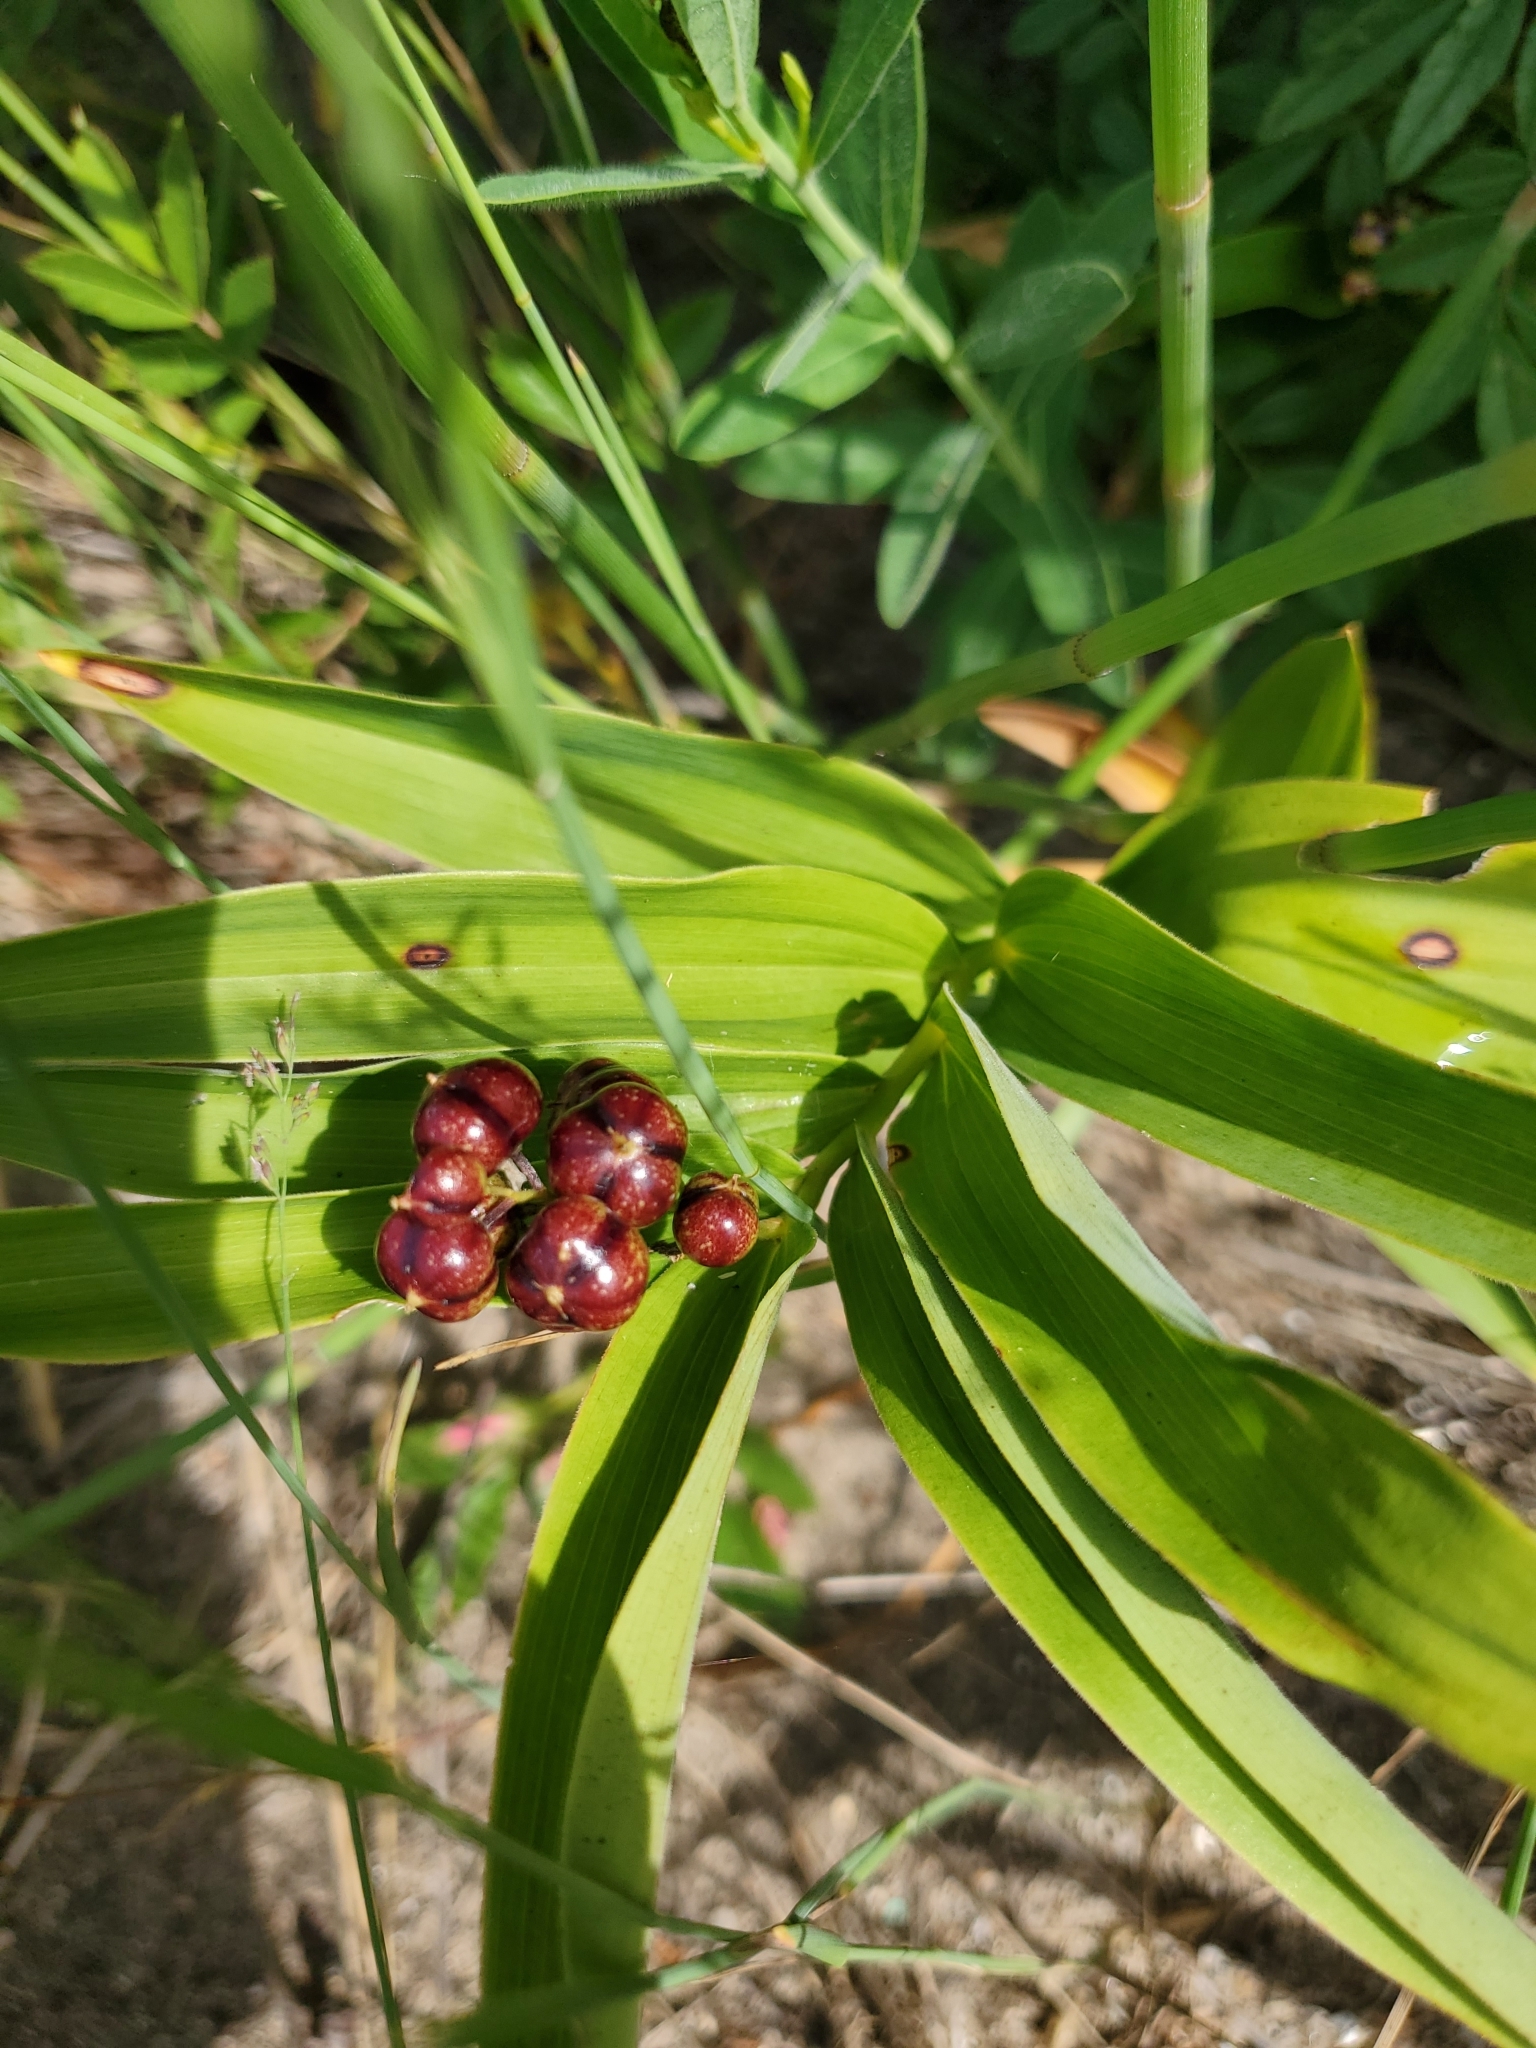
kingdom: Plantae
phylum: Tracheophyta
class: Liliopsida
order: Asparagales
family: Asparagaceae
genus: Maianthemum
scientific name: Maianthemum stellatum
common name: Little false solomon's seal
